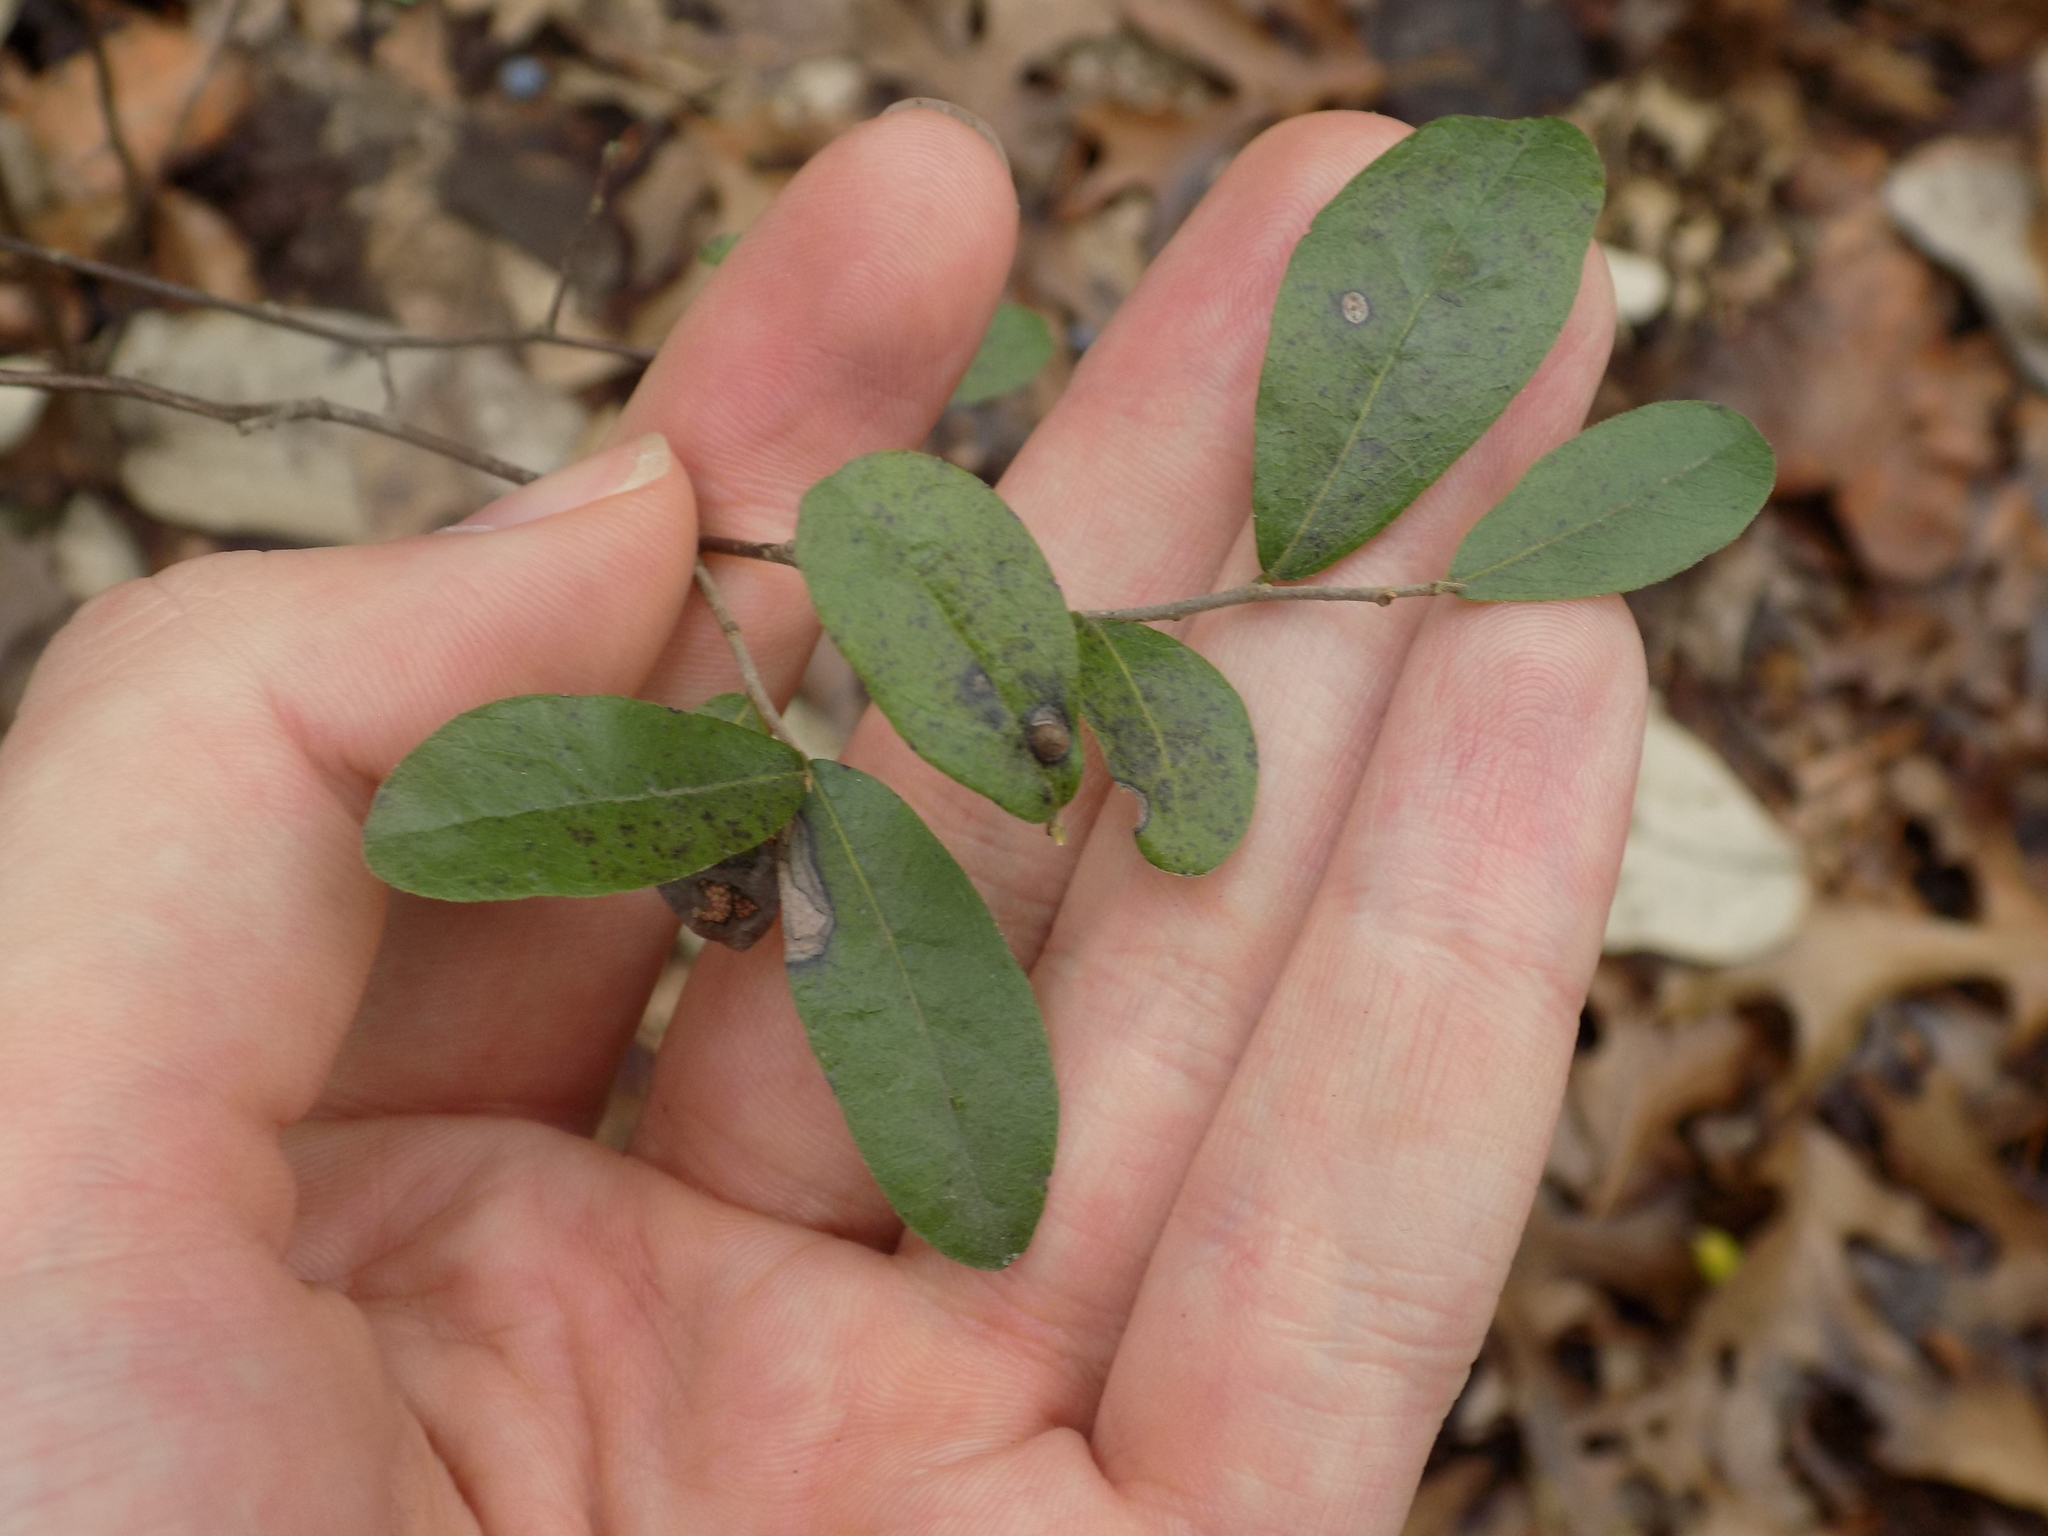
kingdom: Plantae
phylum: Tracheophyta
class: Magnoliopsida
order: Ericales
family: Ebenaceae
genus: Diospyros
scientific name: Diospyros texana
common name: Texas persimmon
